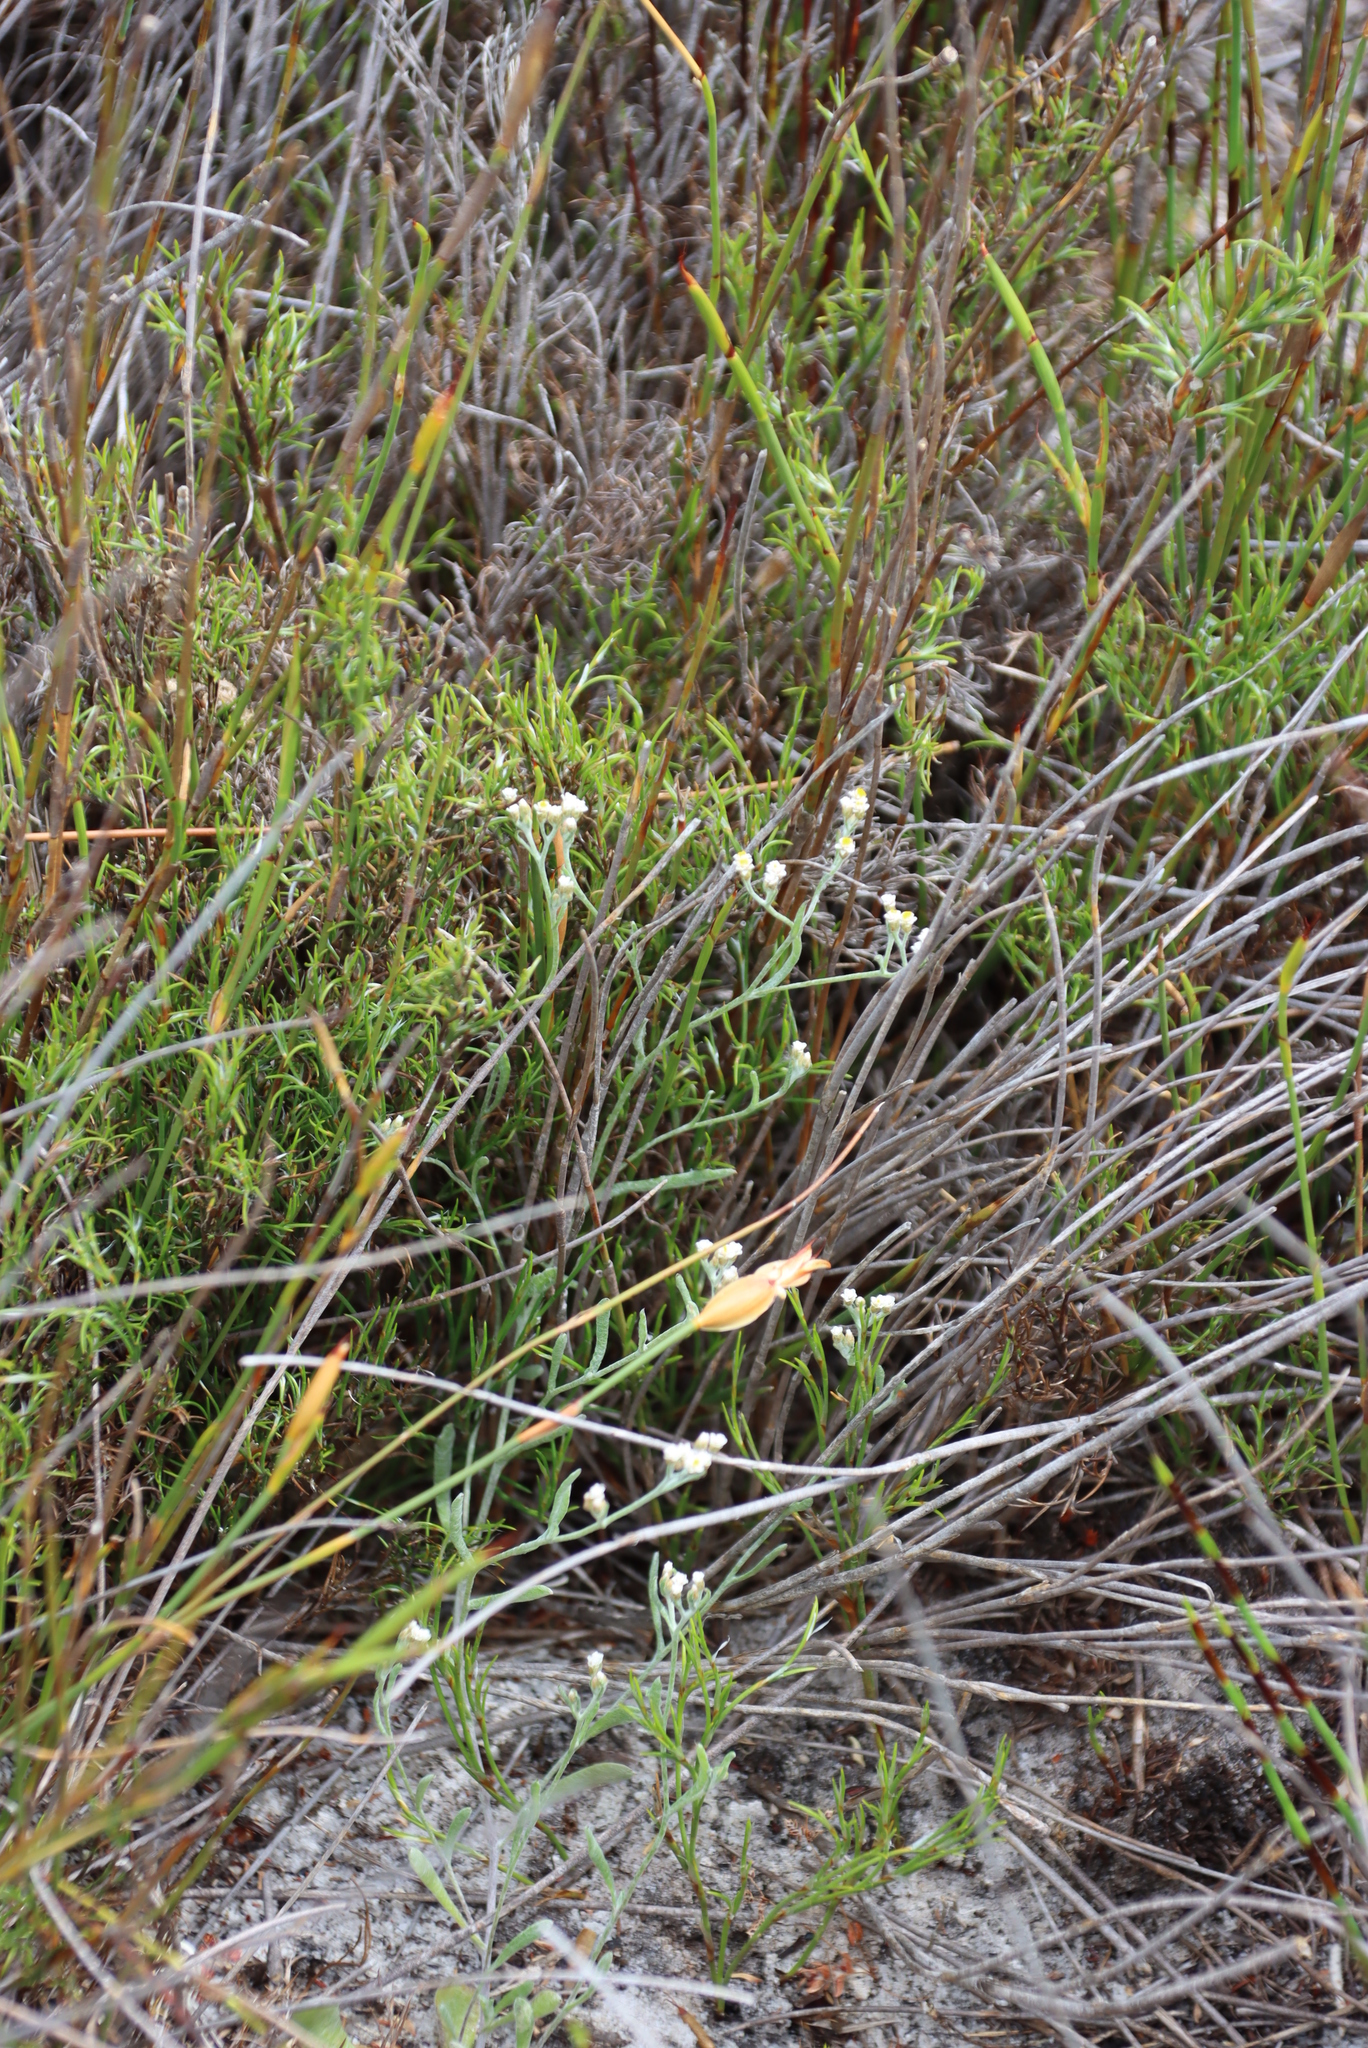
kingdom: Plantae
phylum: Tracheophyta
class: Magnoliopsida
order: Asterales
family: Asteraceae
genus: Helichrysum
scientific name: Helichrysum indicum
